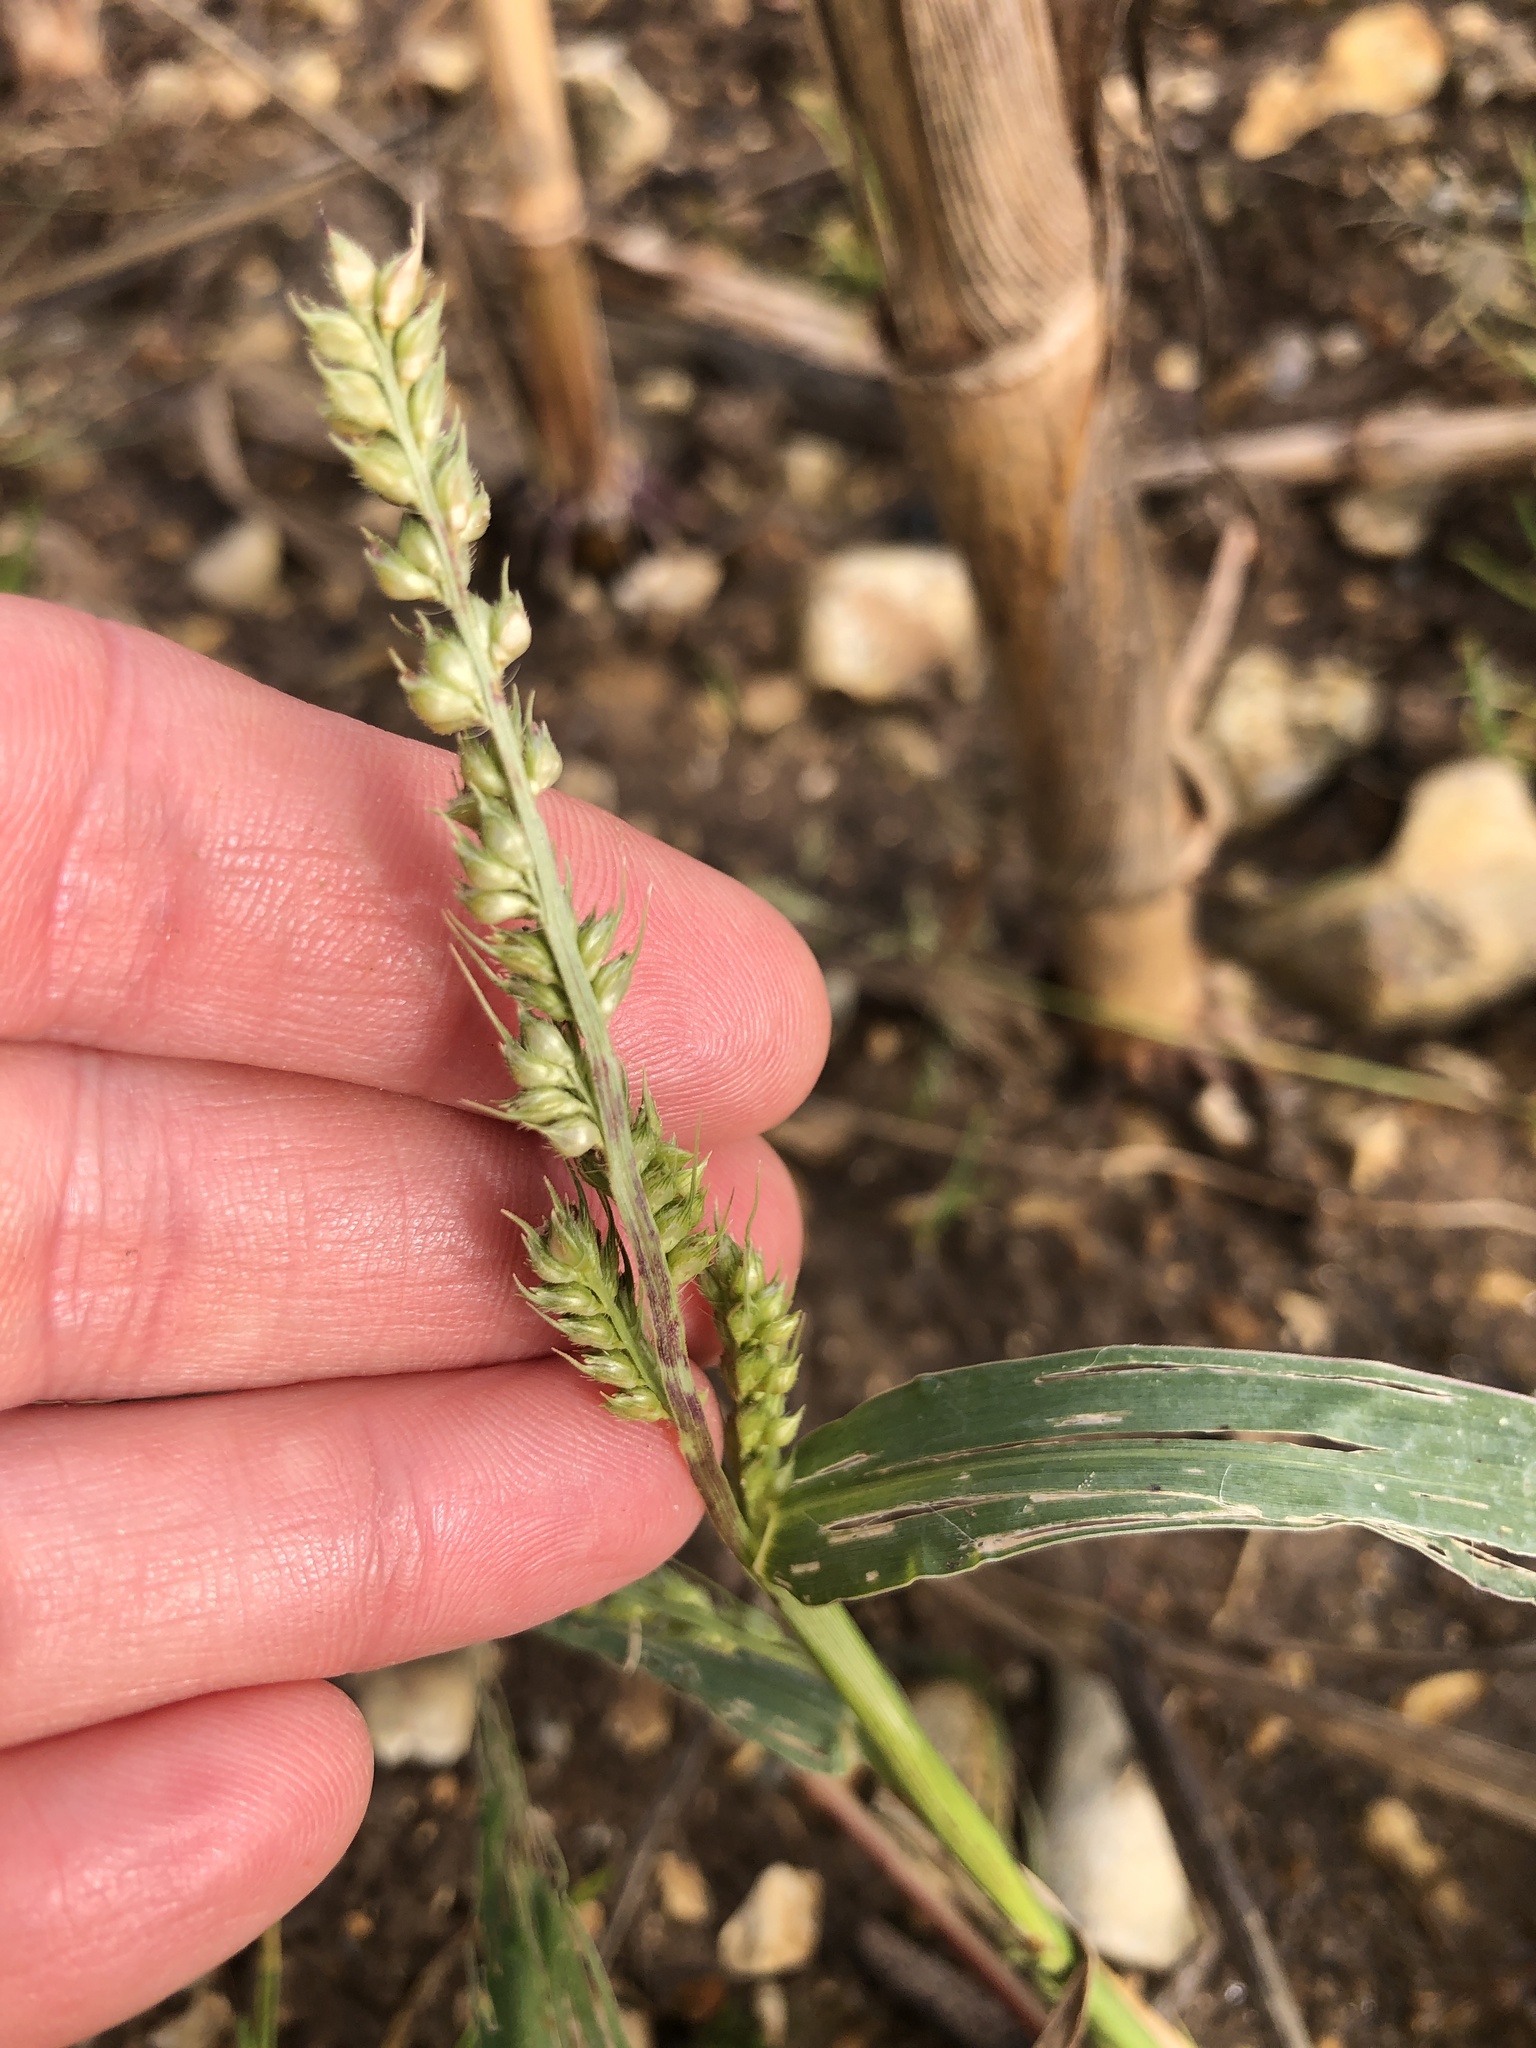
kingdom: Plantae
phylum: Tracheophyta
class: Liliopsida
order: Poales
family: Poaceae
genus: Echinochloa
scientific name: Echinochloa crus-galli
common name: Cockspur
